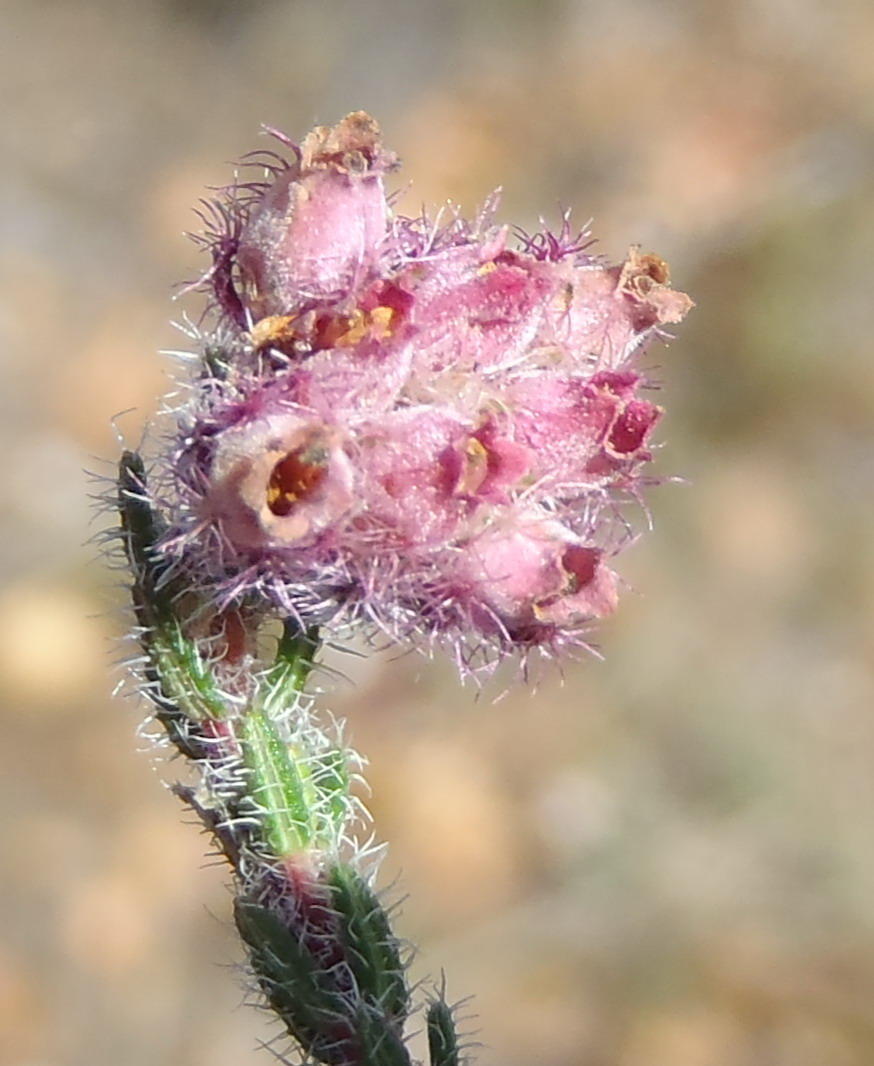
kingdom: Plantae
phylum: Tracheophyta
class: Magnoliopsida
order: Ericales
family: Ericaceae
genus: Erica
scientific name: Erica solandra
